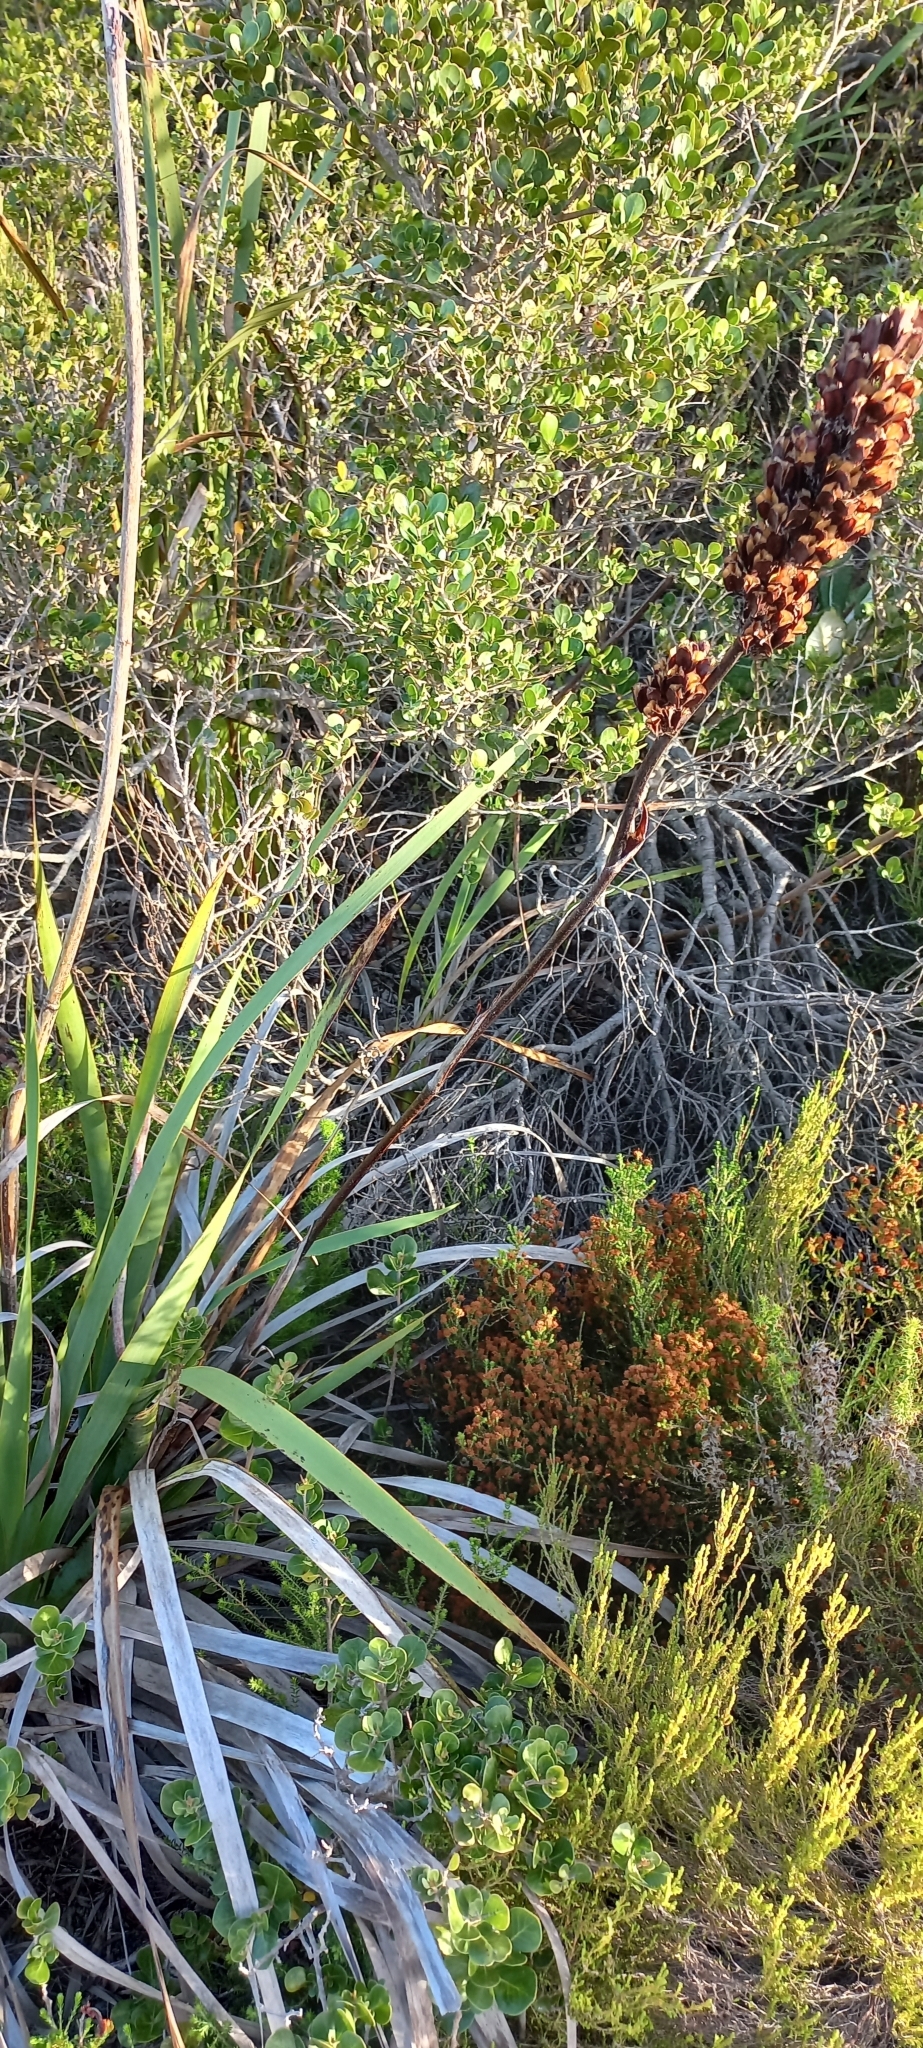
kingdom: Plantae
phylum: Tracheophyta
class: Liliopsida
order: Asparagales
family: Iridaceae
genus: Aristea
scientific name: Aristea capitata
